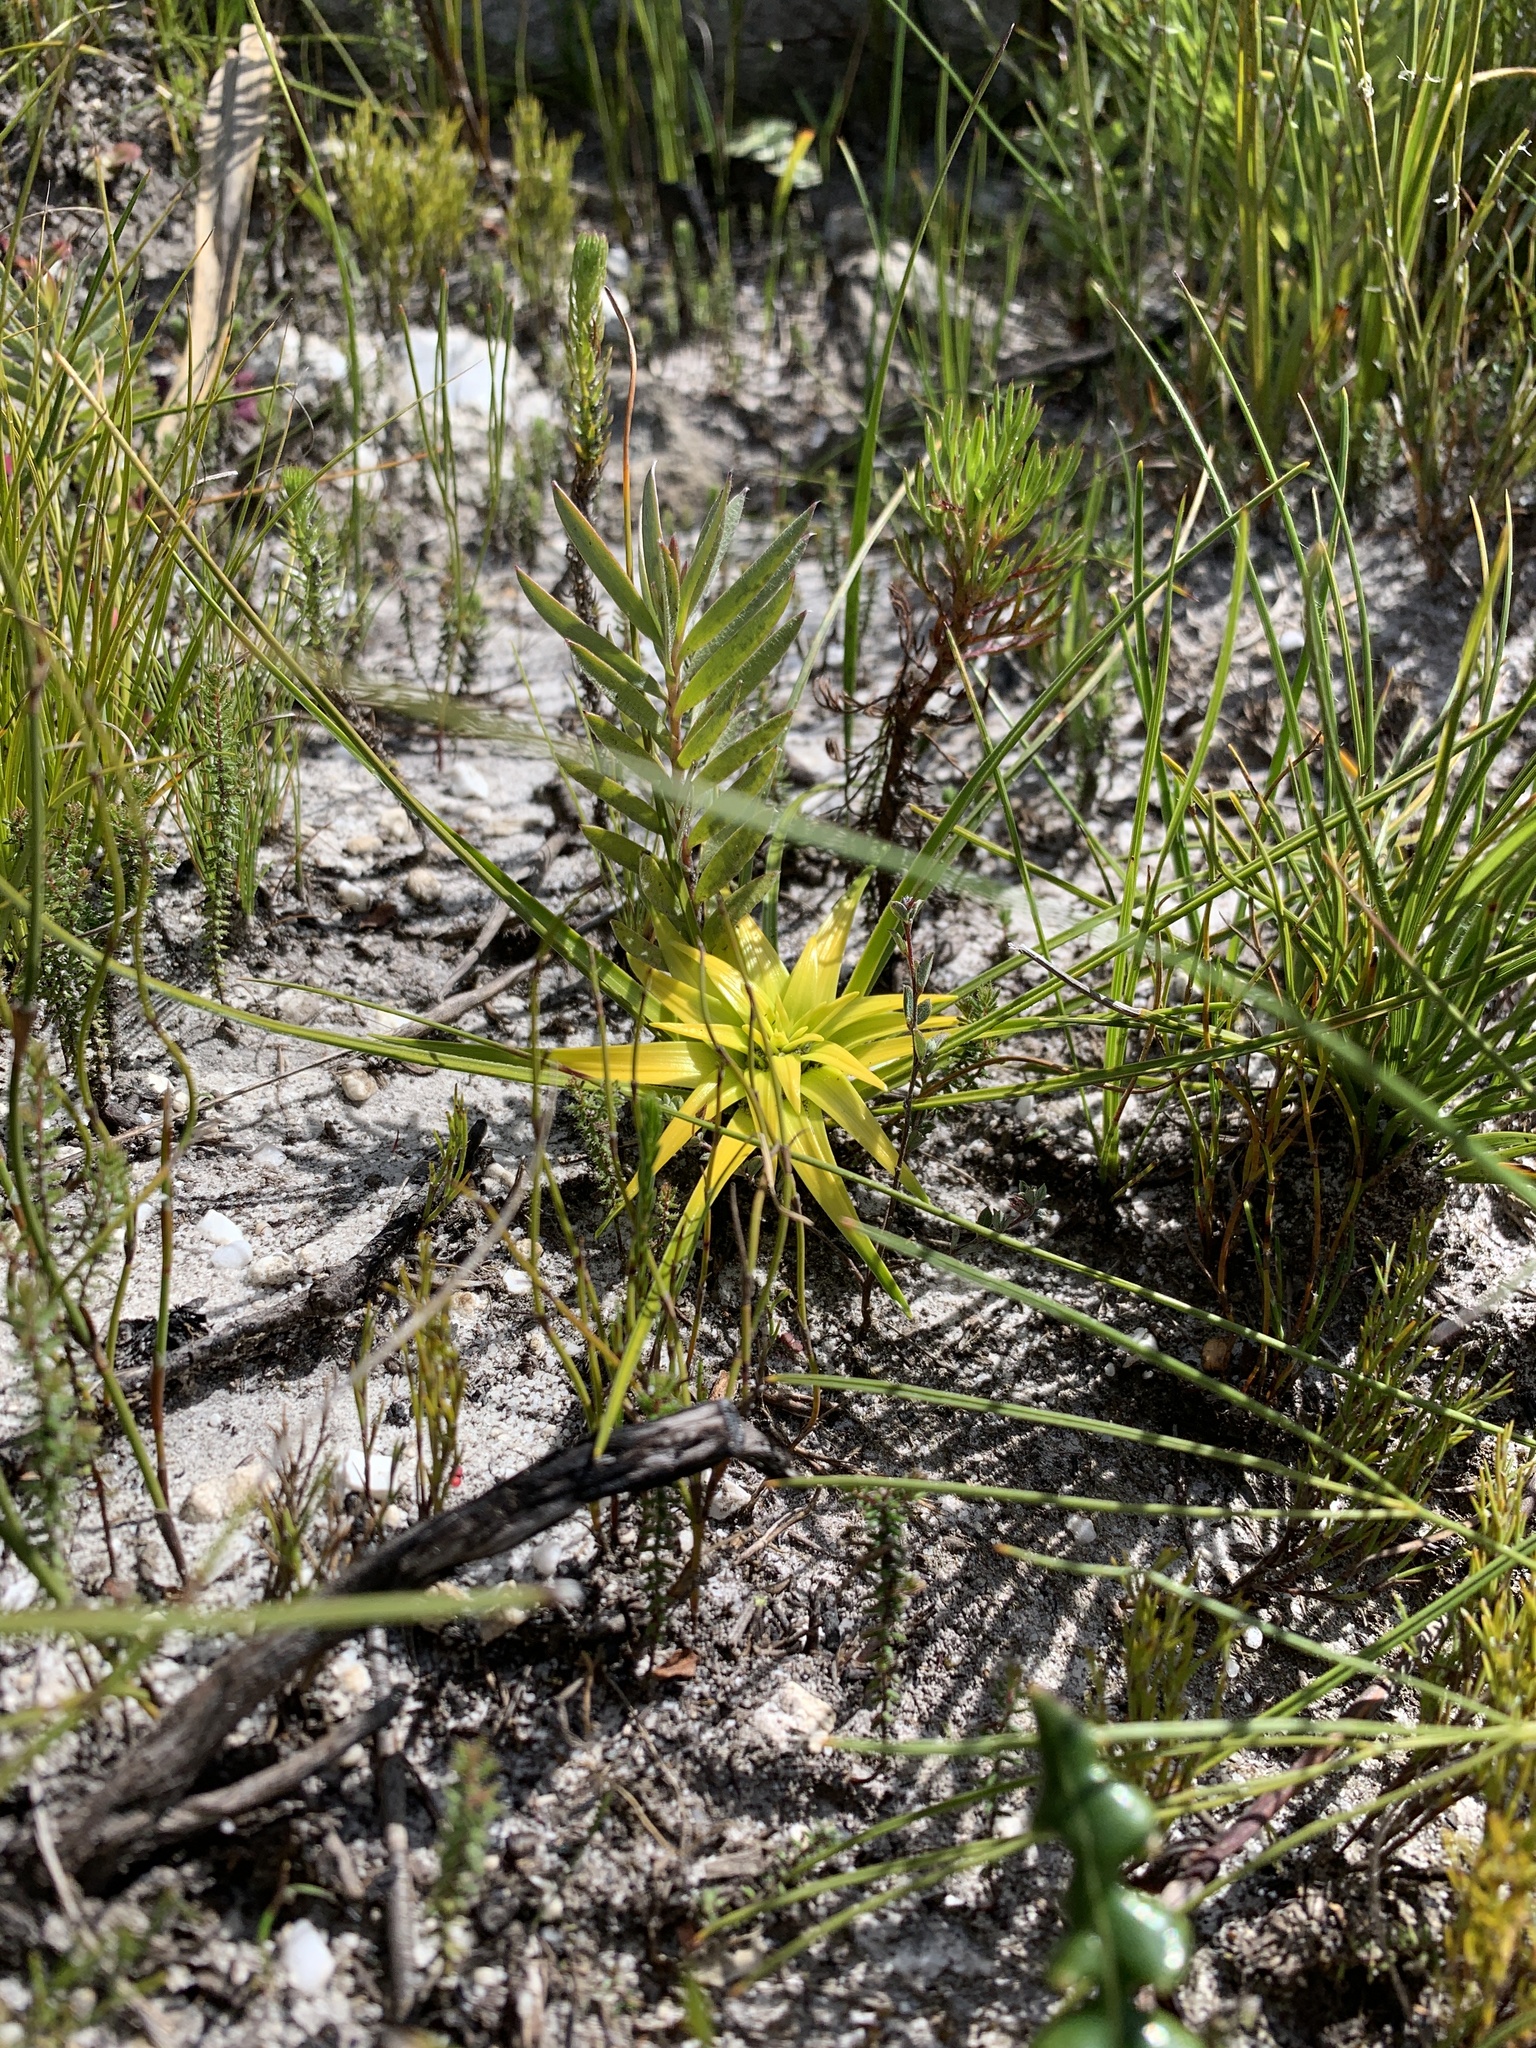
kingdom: Plantae
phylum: Tracheophyta
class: Liliopsida
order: Poales
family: Cyperaceae
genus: Ficinia
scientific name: Ficinia radiata
